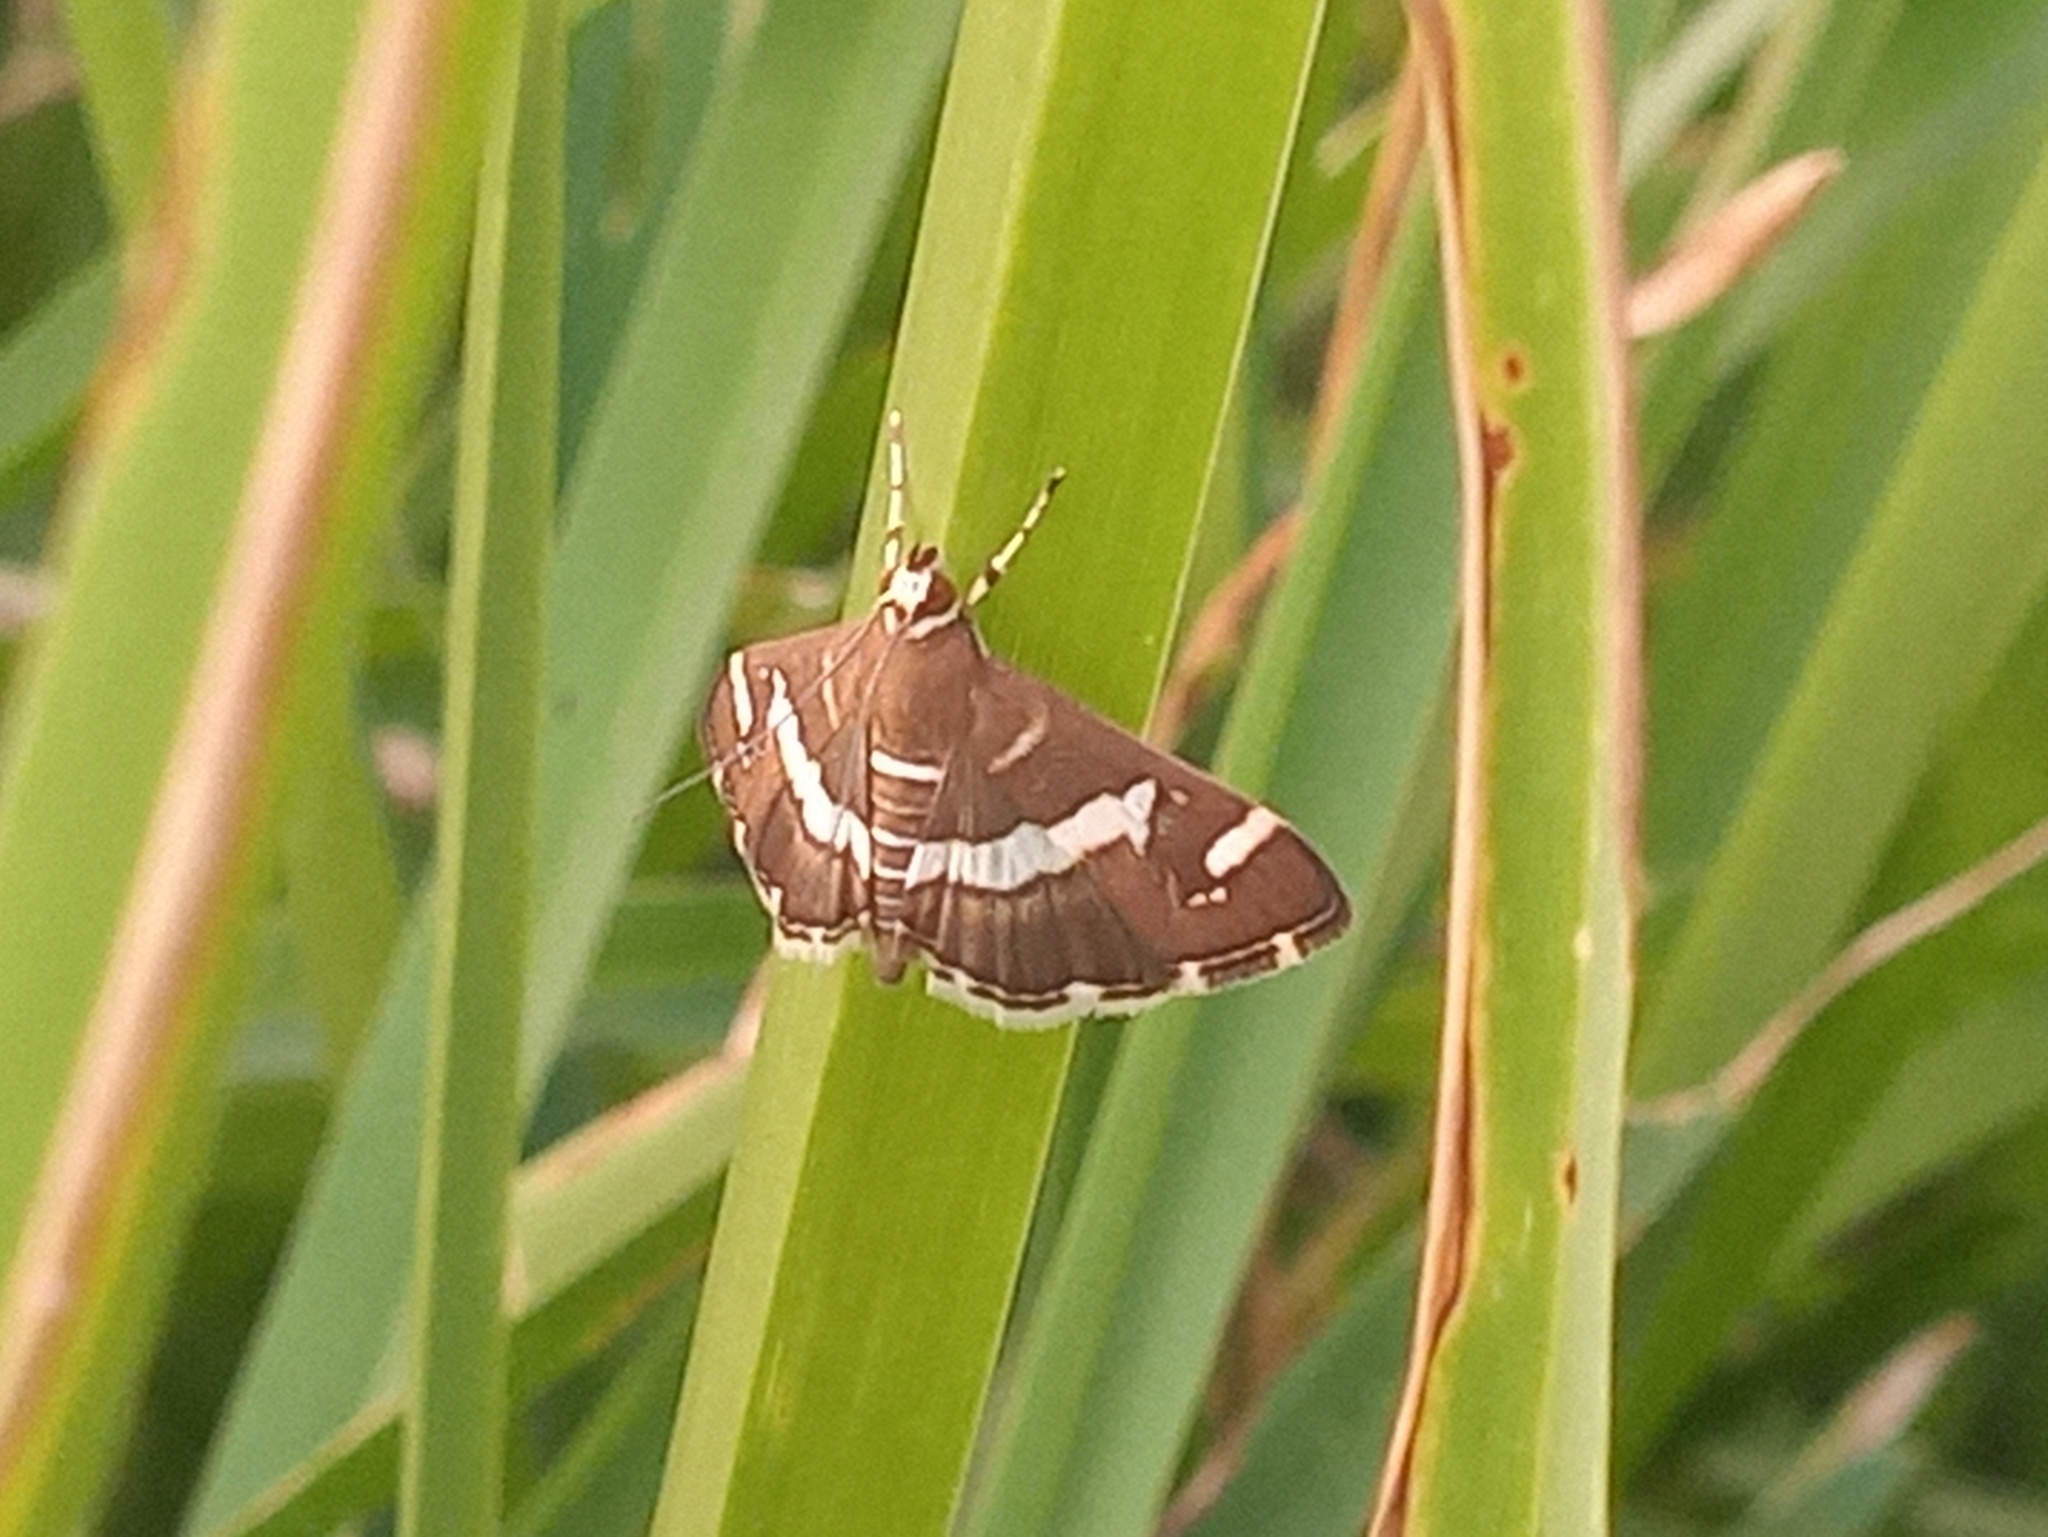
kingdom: Animalia
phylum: Arthropoda
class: Insecta
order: Lepidoptera
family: Crambidae
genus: Spoladea
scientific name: Spoladea recurvalis
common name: Beet webworm moth
